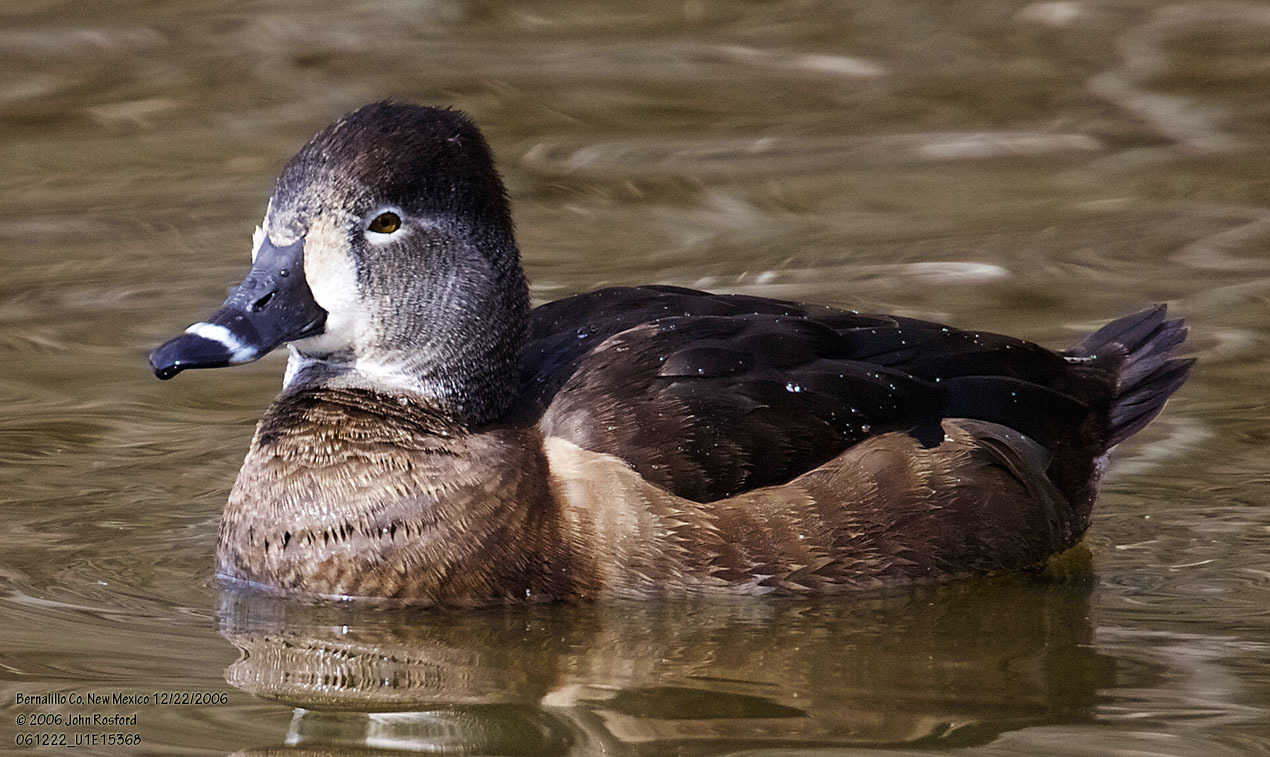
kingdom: Animalia
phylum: Chordata
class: Aves
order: Anseriformes
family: Anatidae
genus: Aythya
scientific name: Aythya collaris
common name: Ring-necked duck
